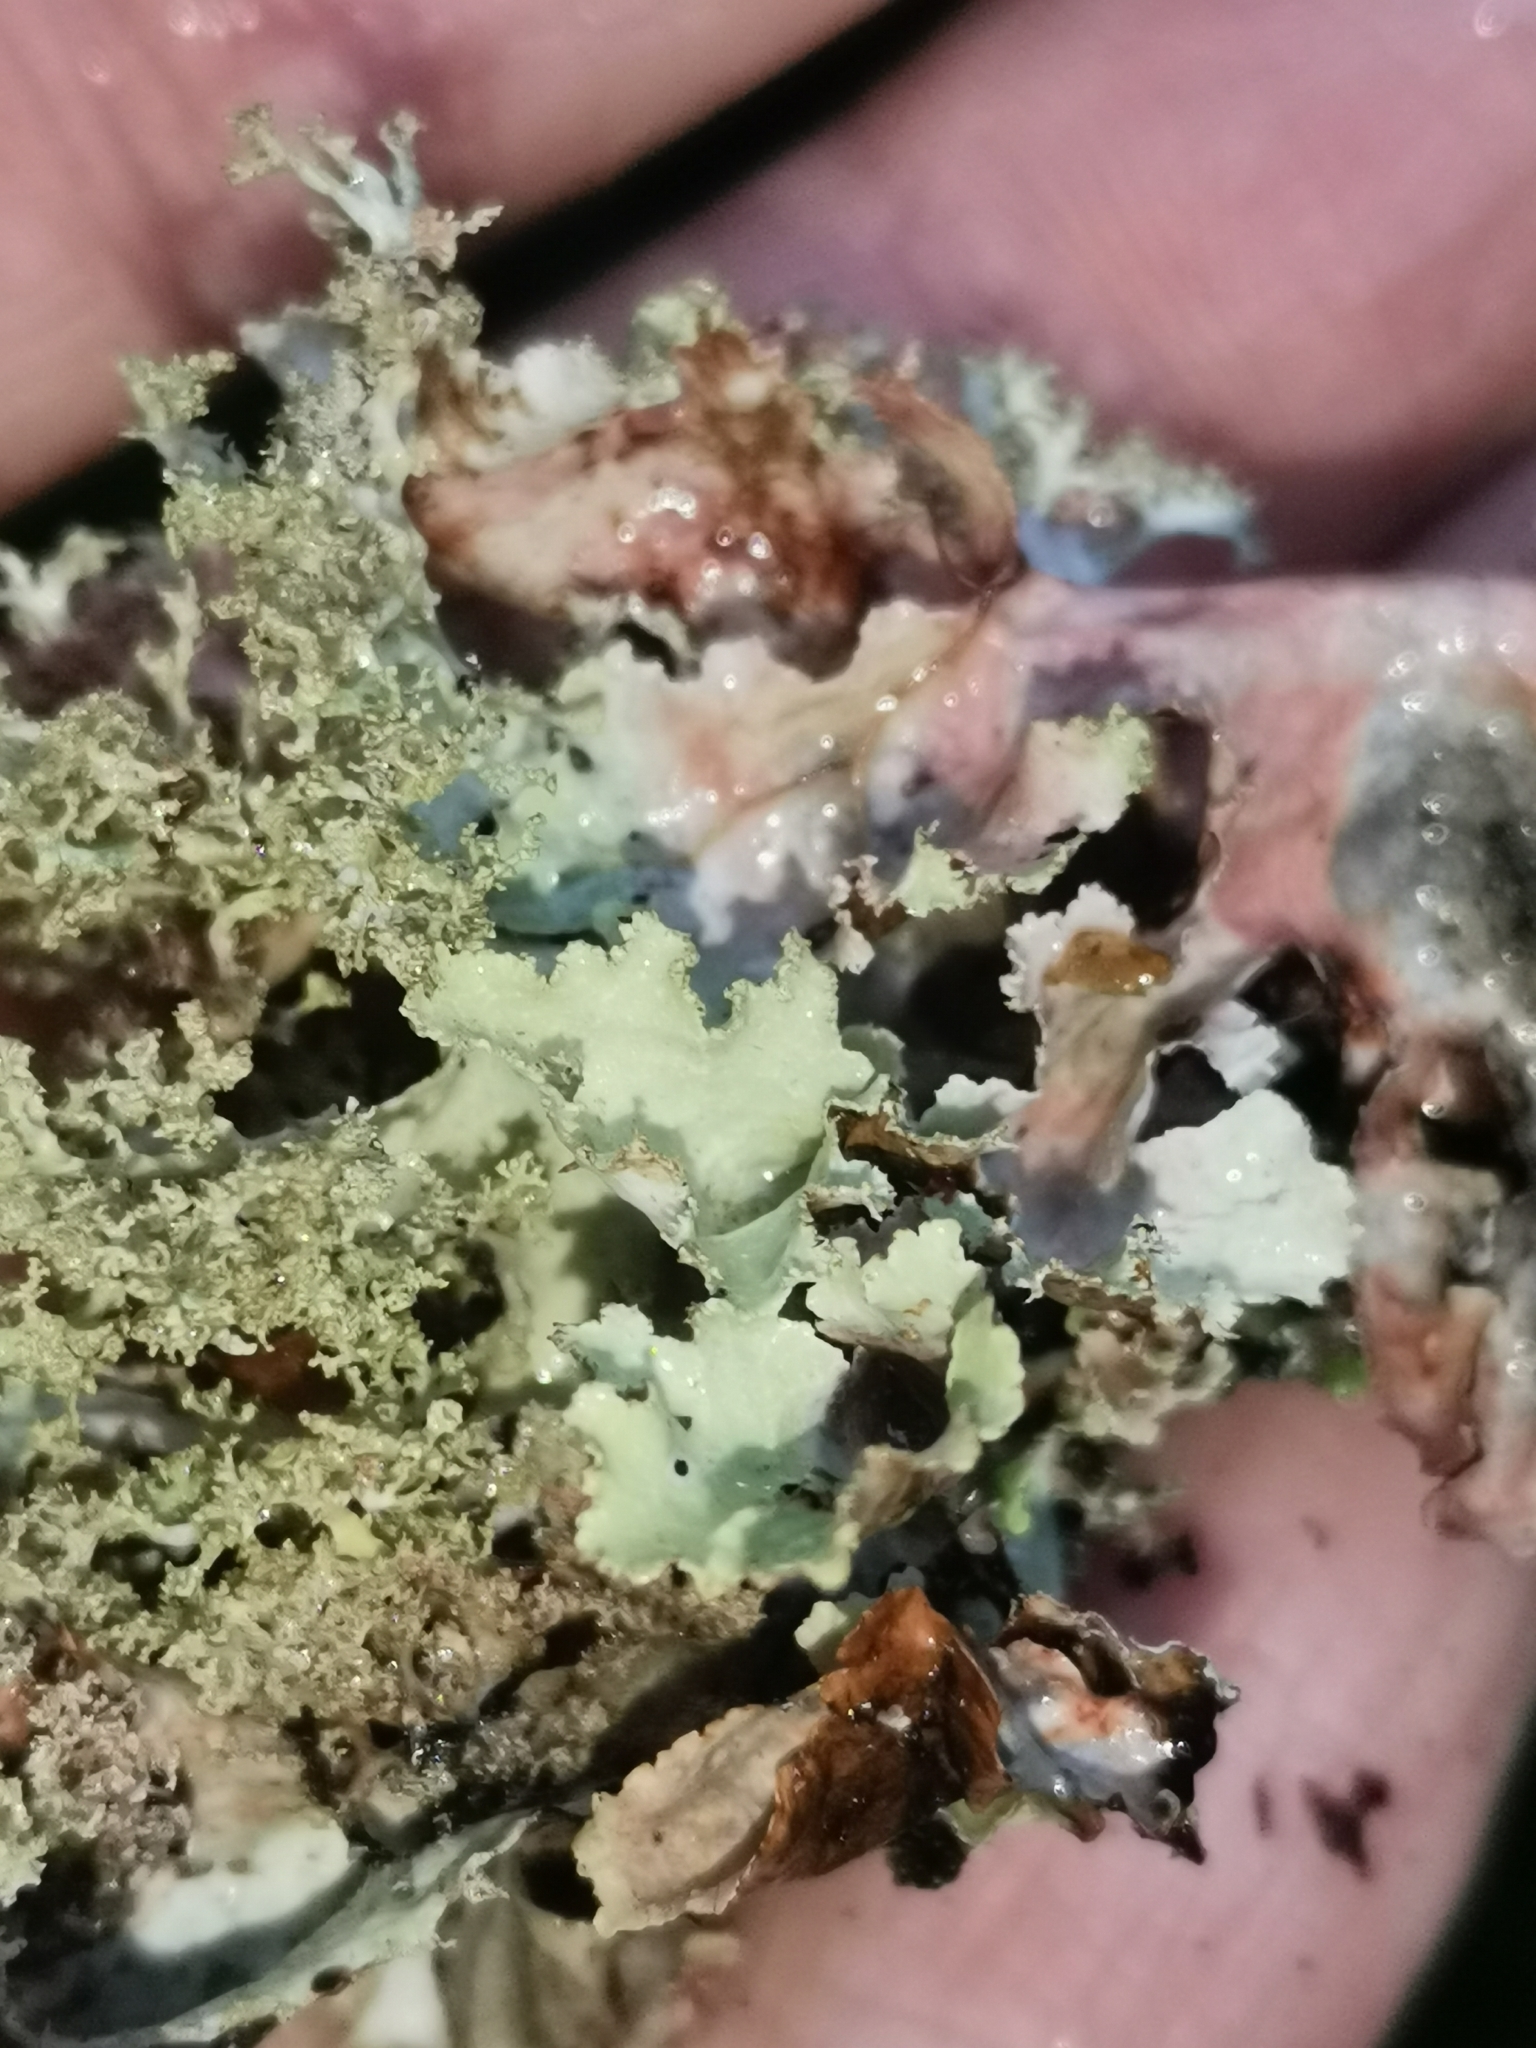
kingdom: Fungi
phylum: Ascomycota
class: Lecanoromycetes
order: Lecanorales
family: Parmeliaceae
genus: Platismatia
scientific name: Platismatia glauca
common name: Varied rag lichen
